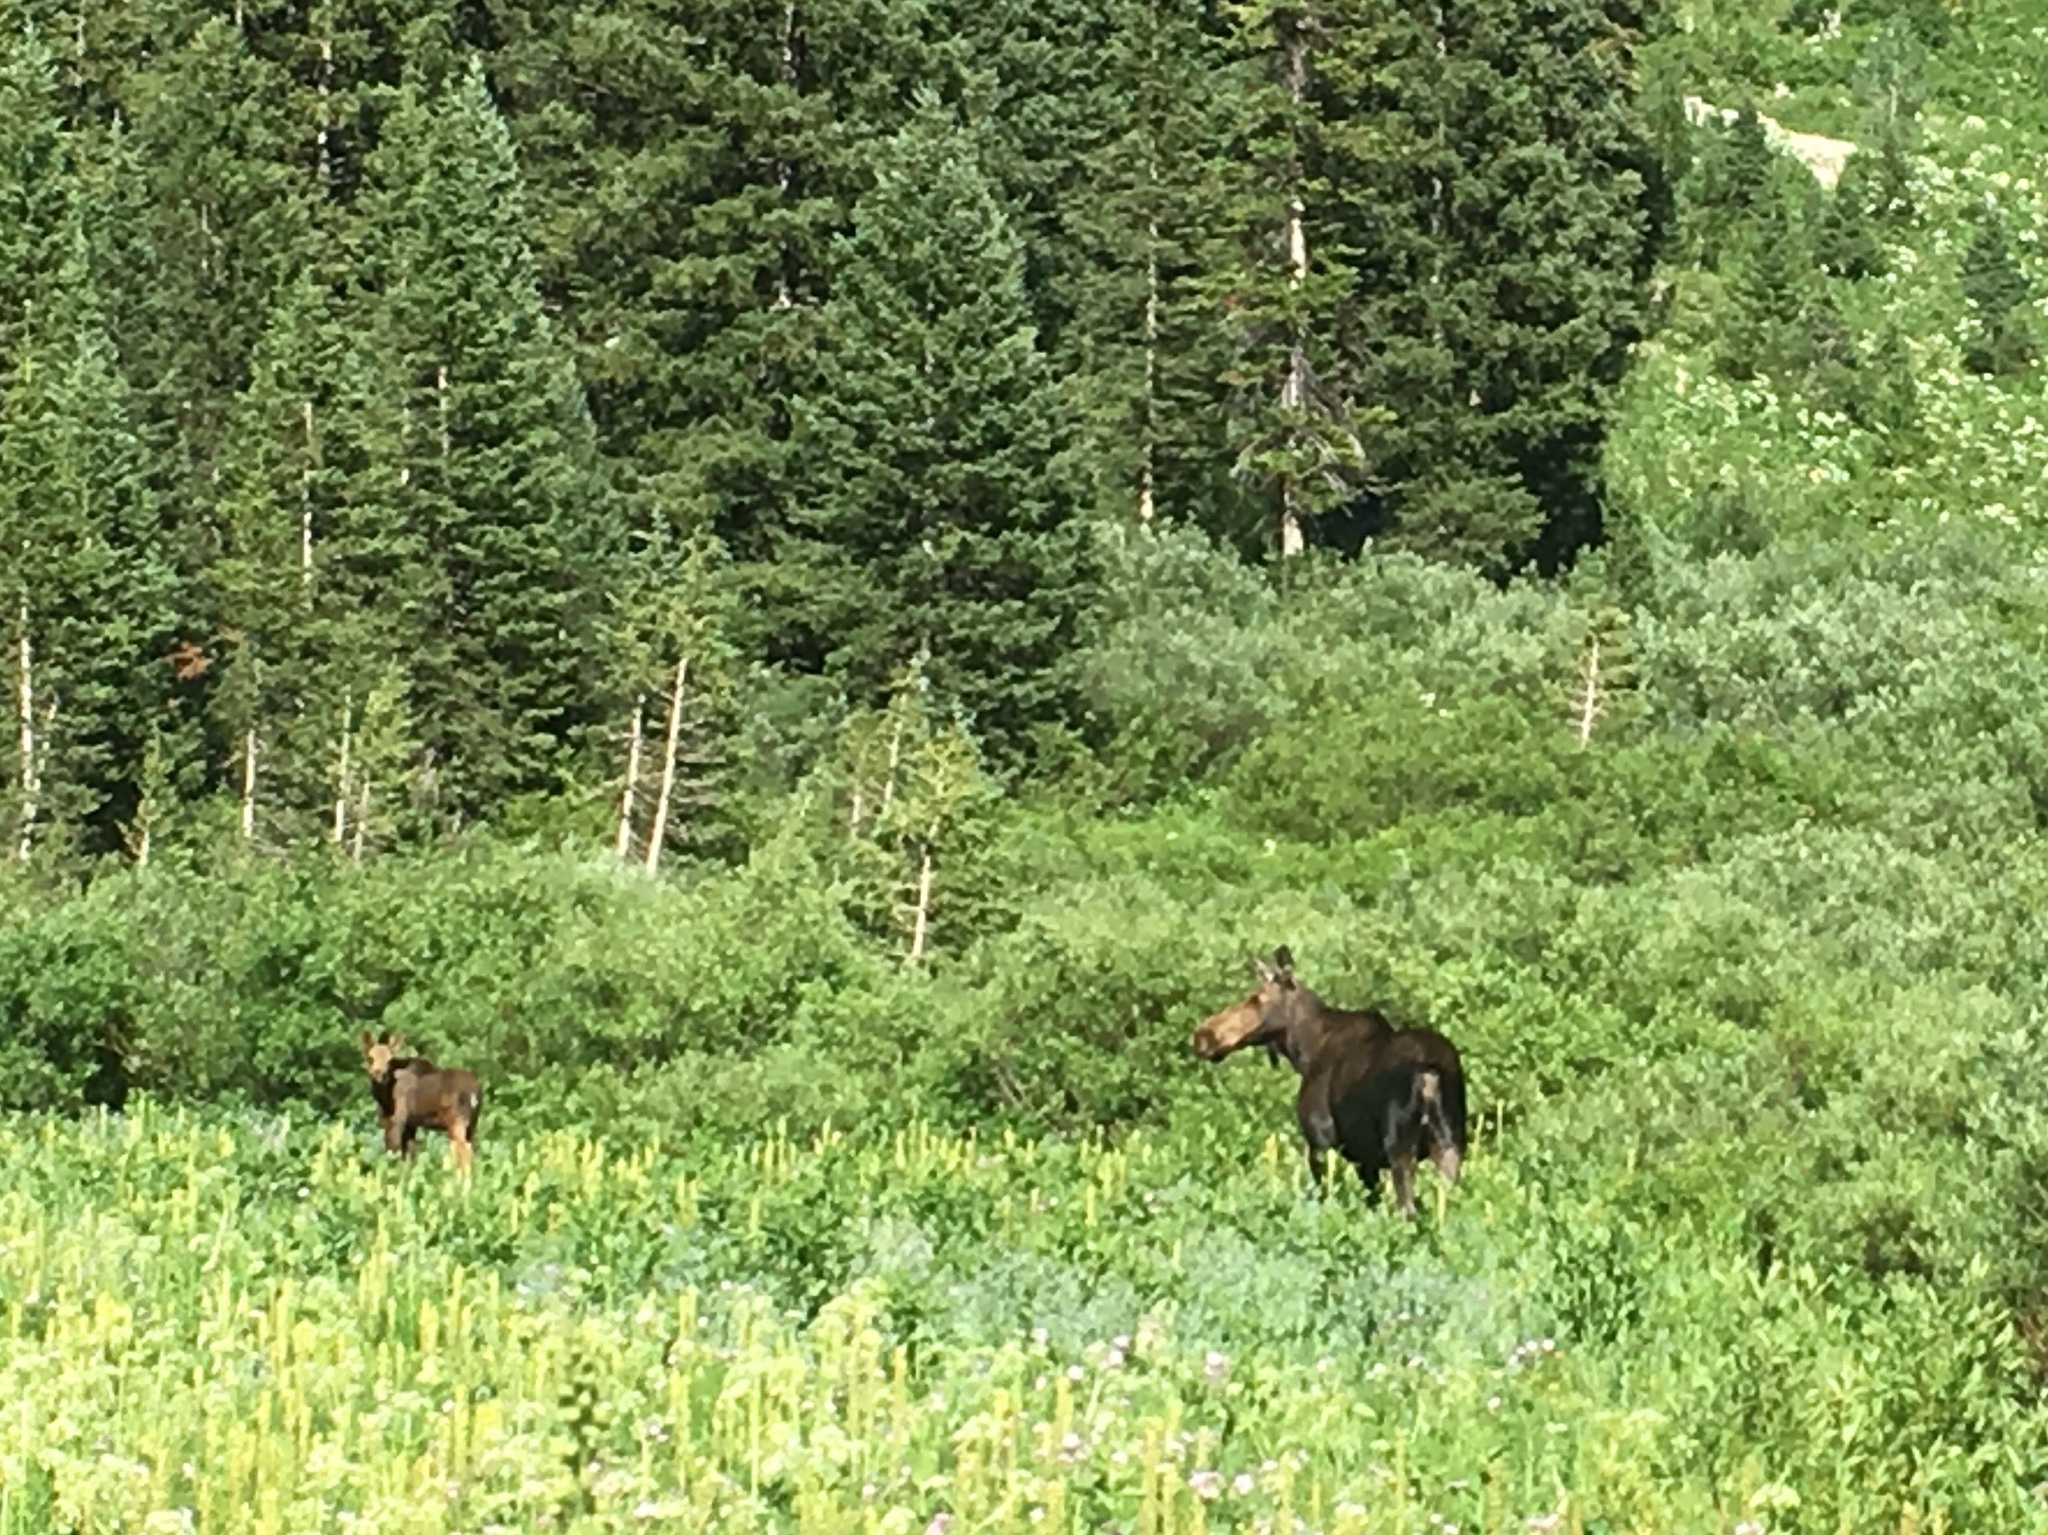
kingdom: Animalia
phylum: Chordata
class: Mammalia
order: Artiodactyla
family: Cervidae
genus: Alces
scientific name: Alces alces
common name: Moose
